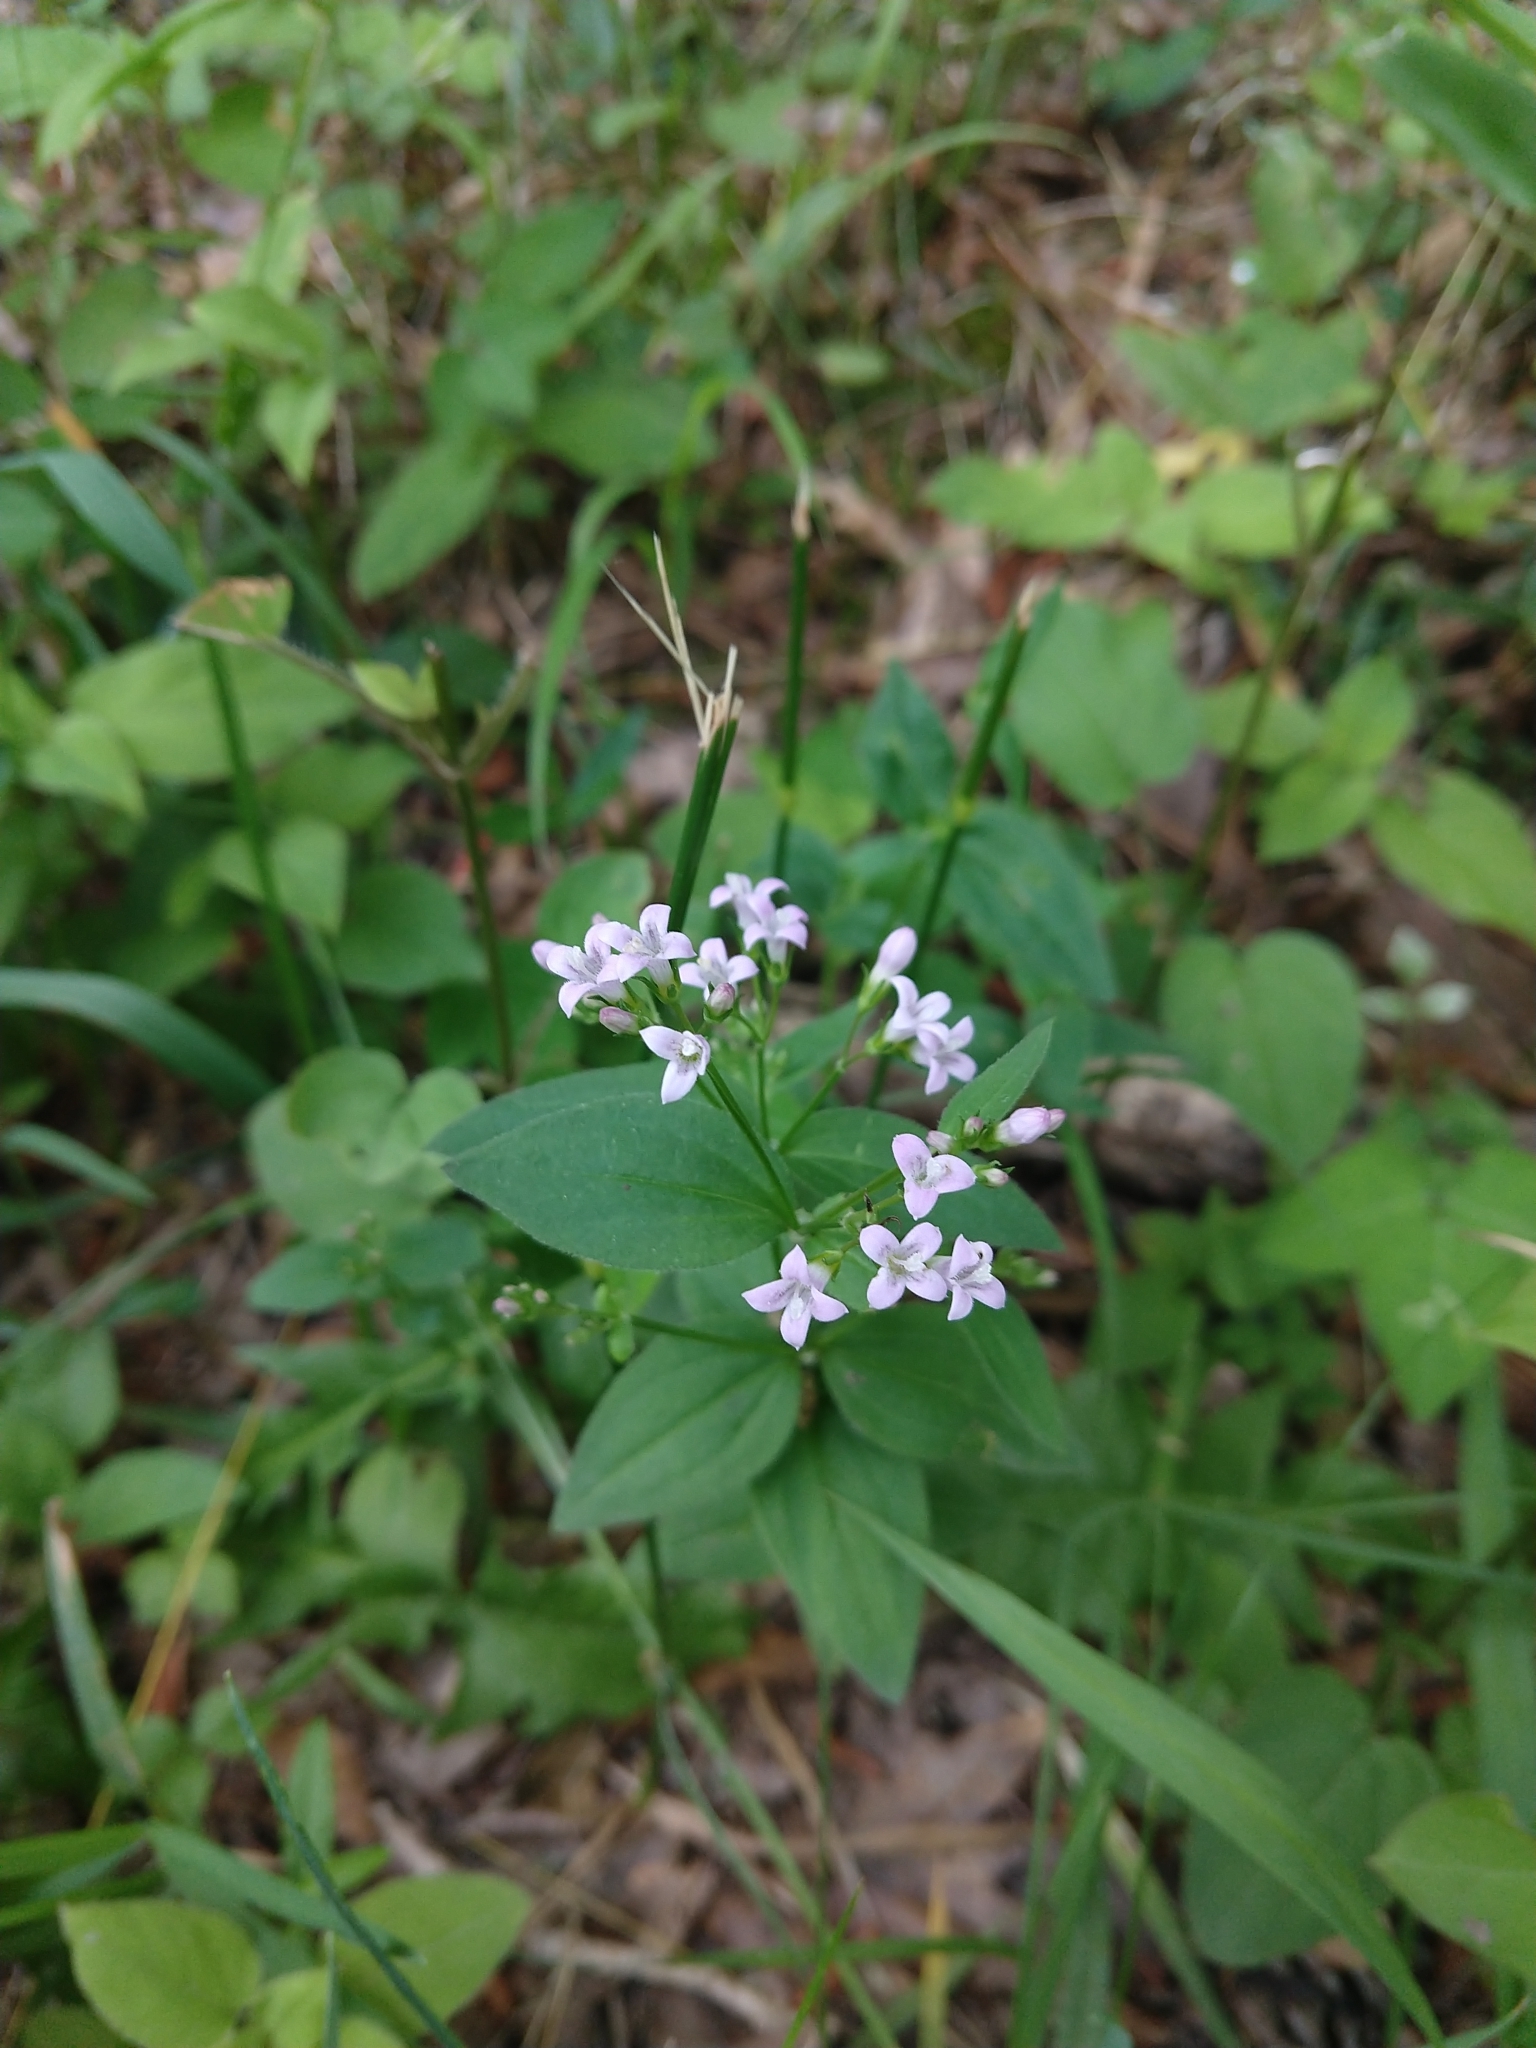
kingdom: Plantae
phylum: Tracheophyta
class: Magnoliopsida
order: Gentianales
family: Rubiaceae
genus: Houstonia
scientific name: Houstonia purpurea
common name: Summer bluet
